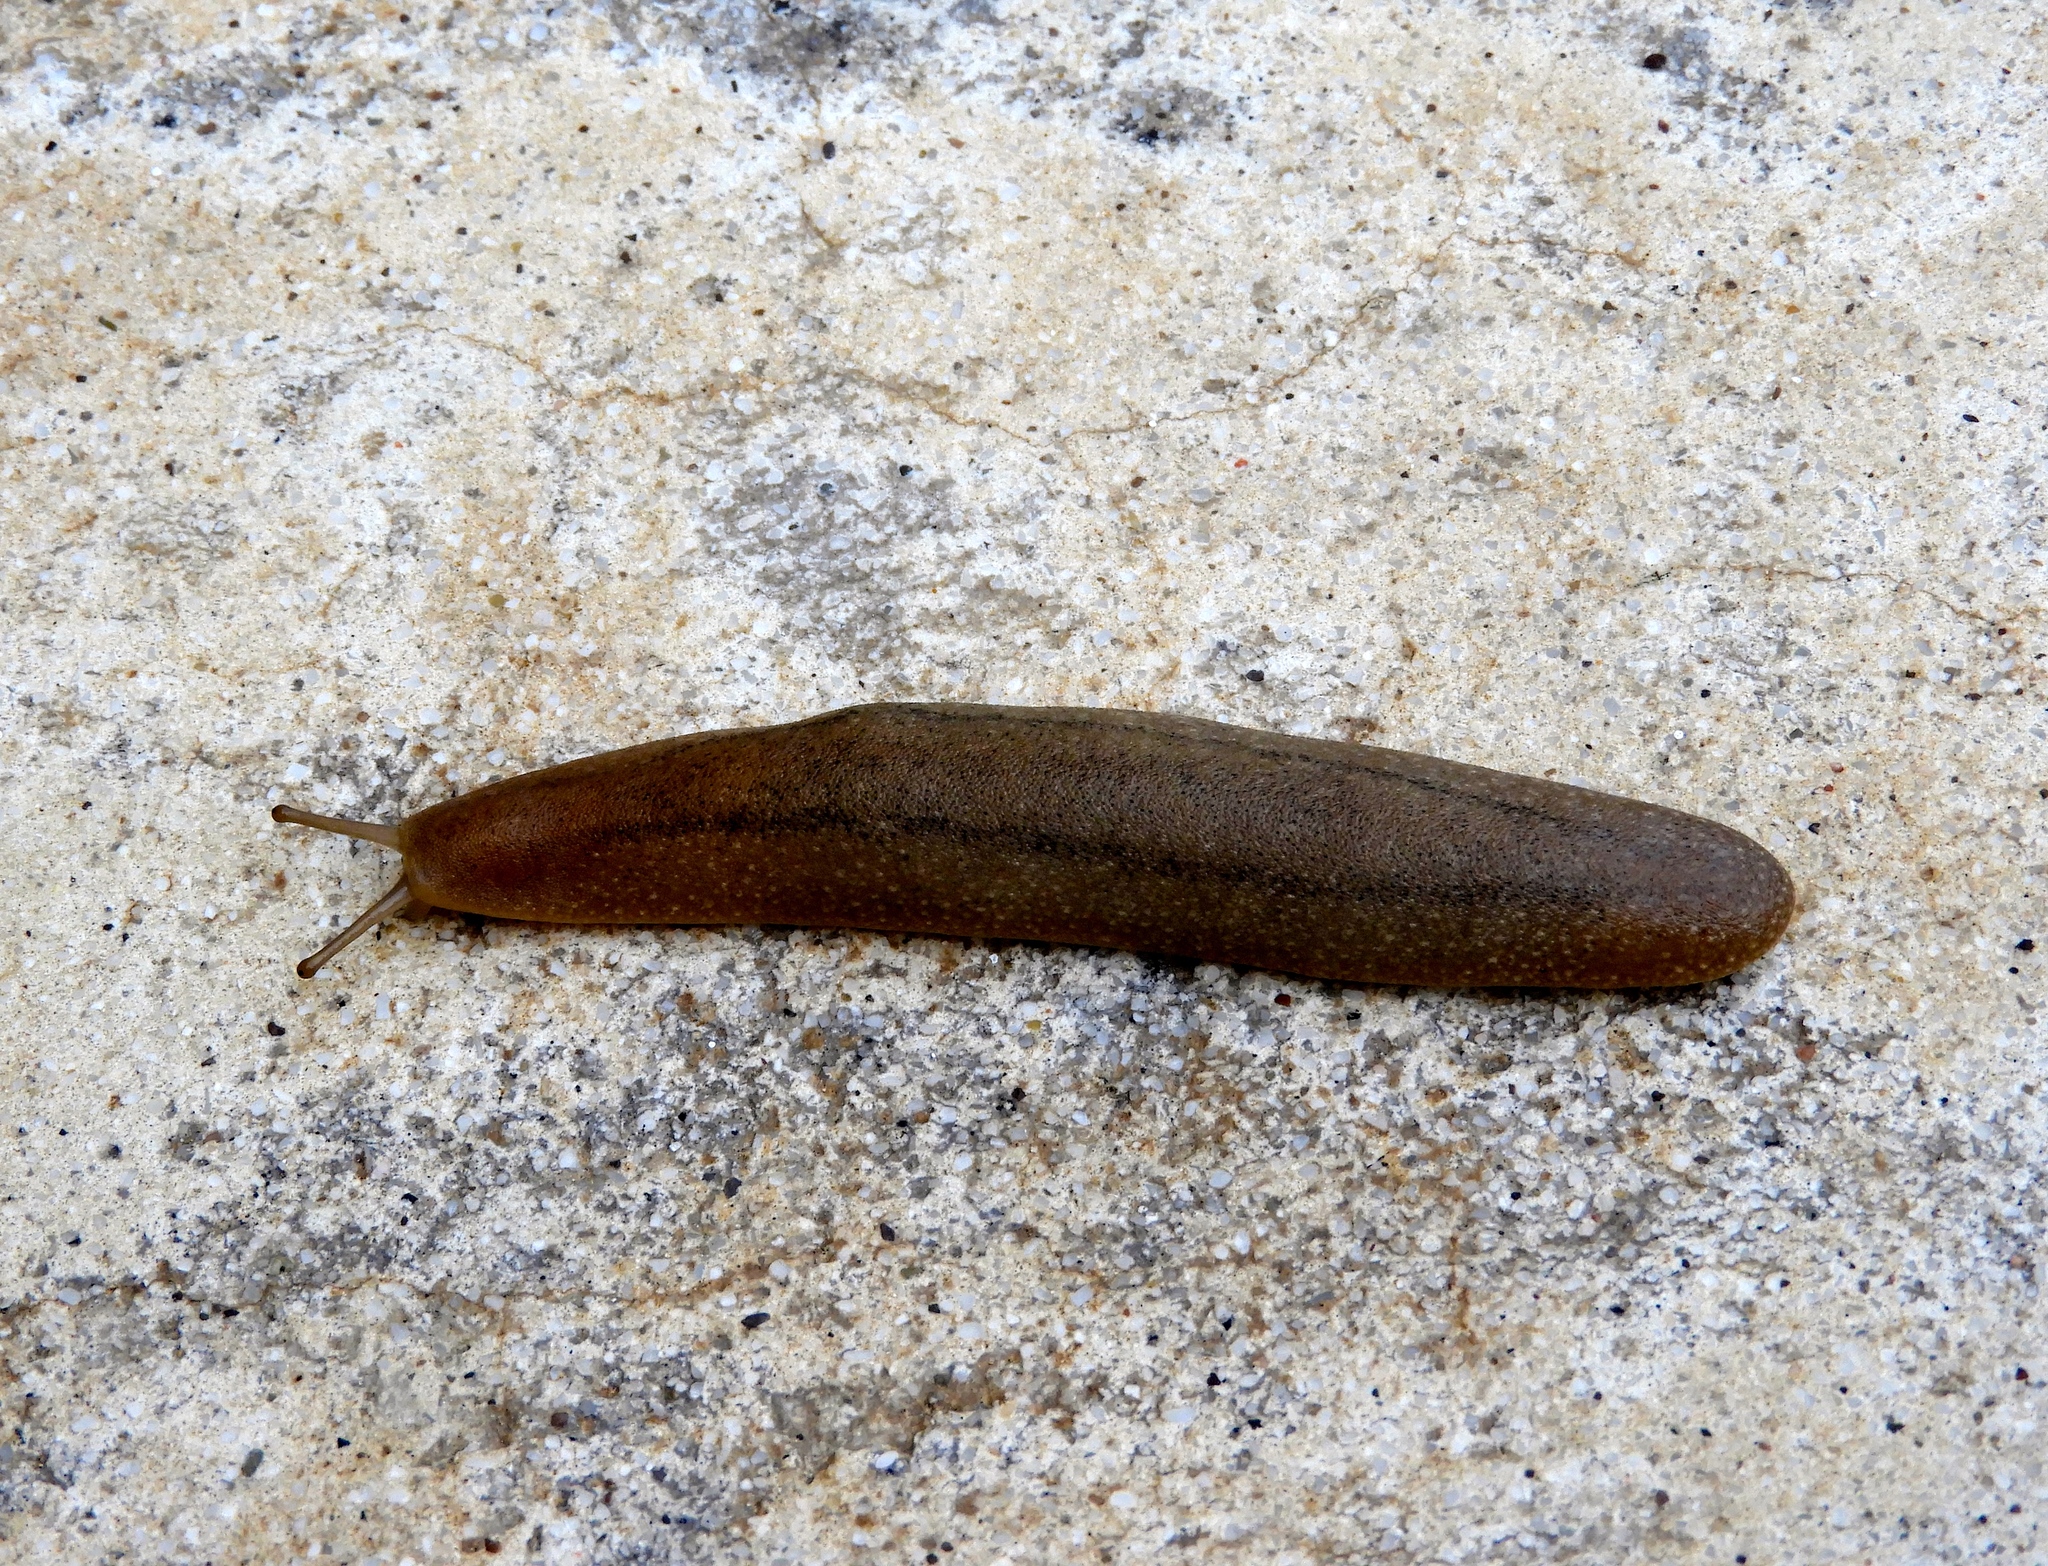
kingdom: Animalia
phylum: Mollusca
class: Gastropoda
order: Systellommatophora
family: Veronicellidae
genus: Leidyula
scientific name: Leidyula moreleti
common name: Tan leatherleaf
